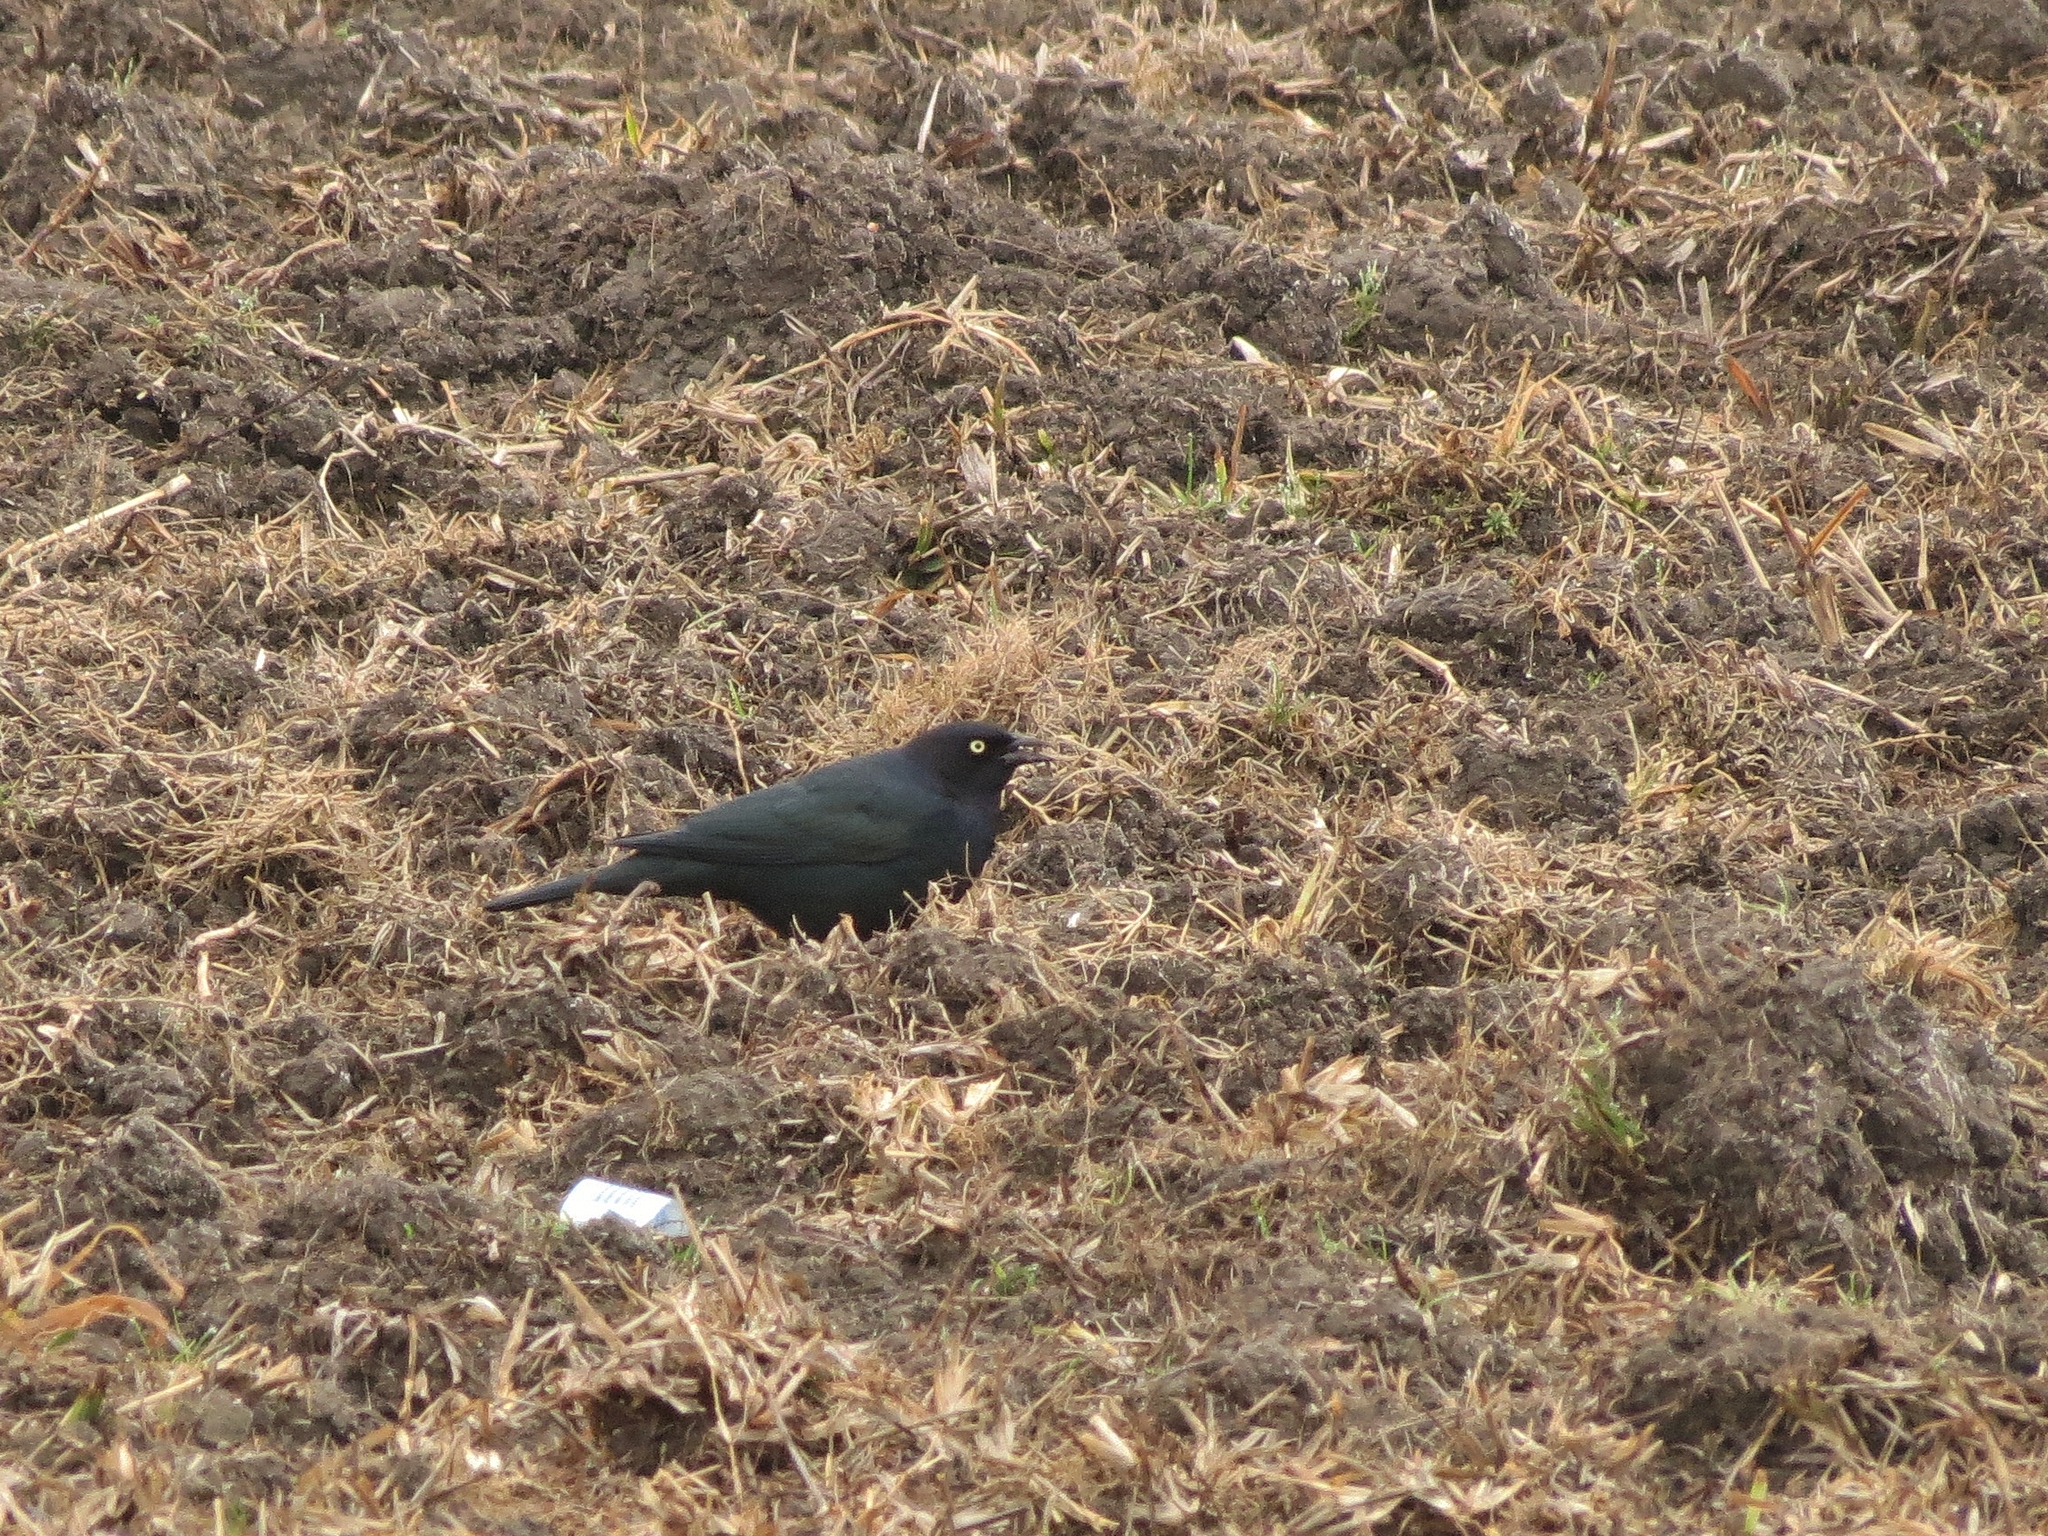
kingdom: Animalia
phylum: Chordata
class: Aves
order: Passeriformes
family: Icteridae
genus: Euphagus
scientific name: Euphagus cyanocephalus
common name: Brewer's blackbird
